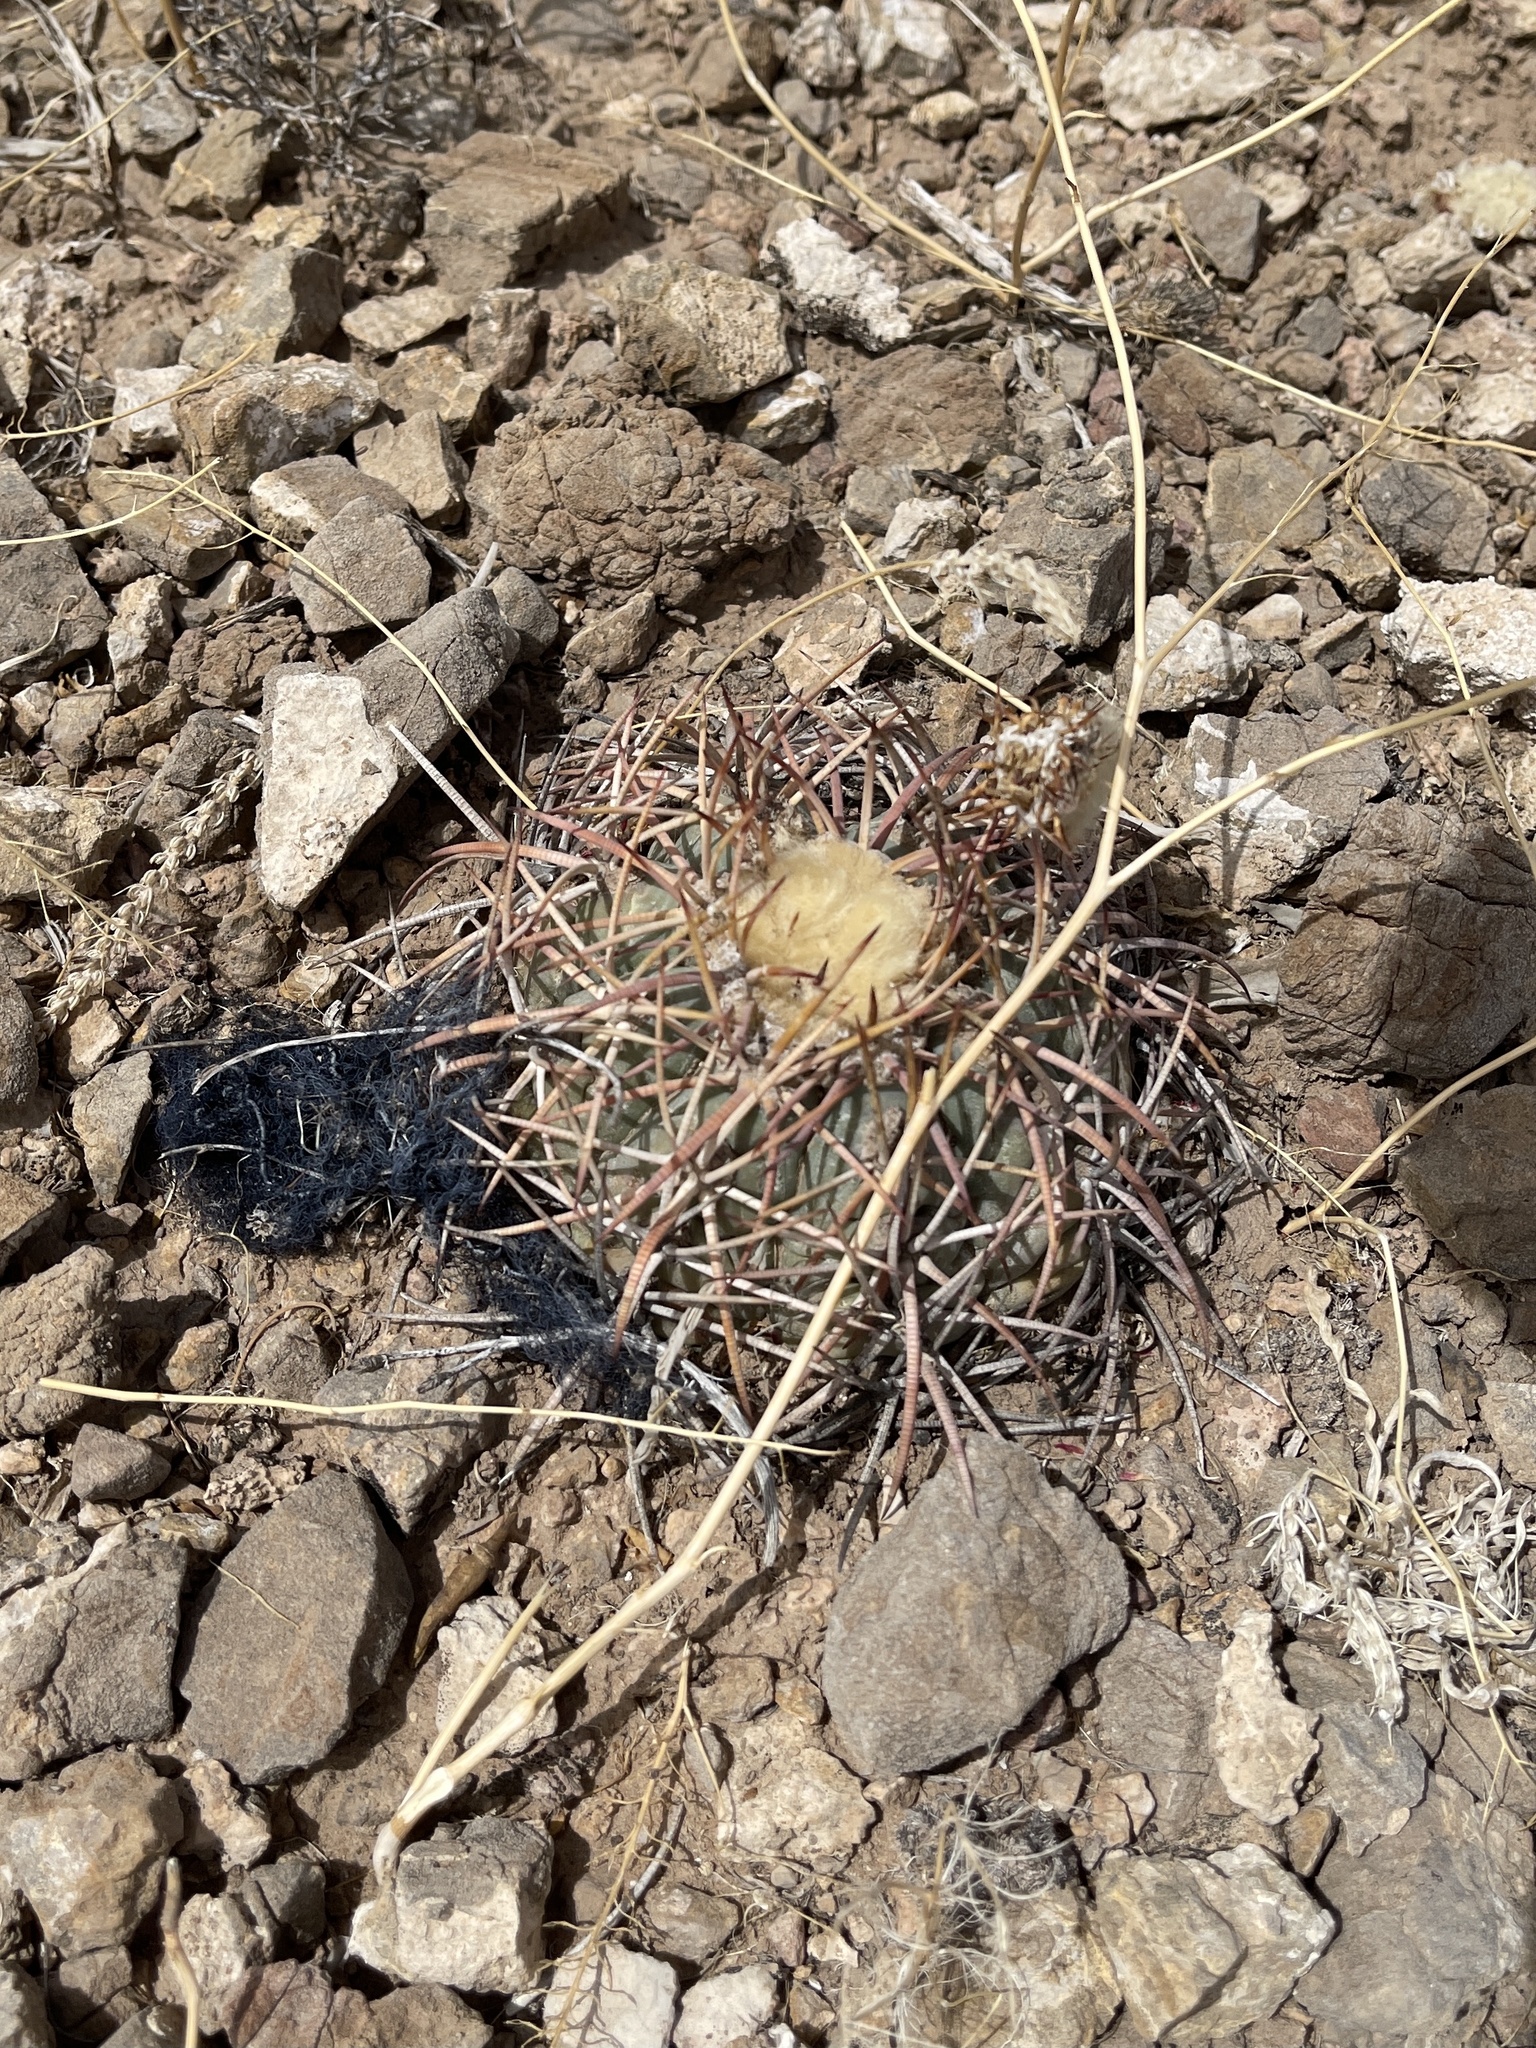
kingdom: Plantae
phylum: Tracheophyta
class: Magnoliopsida
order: Caryophyllales
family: Cactaceae
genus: Echinocactus
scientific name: Echinocactus horizonthalonius
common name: Devilshead
